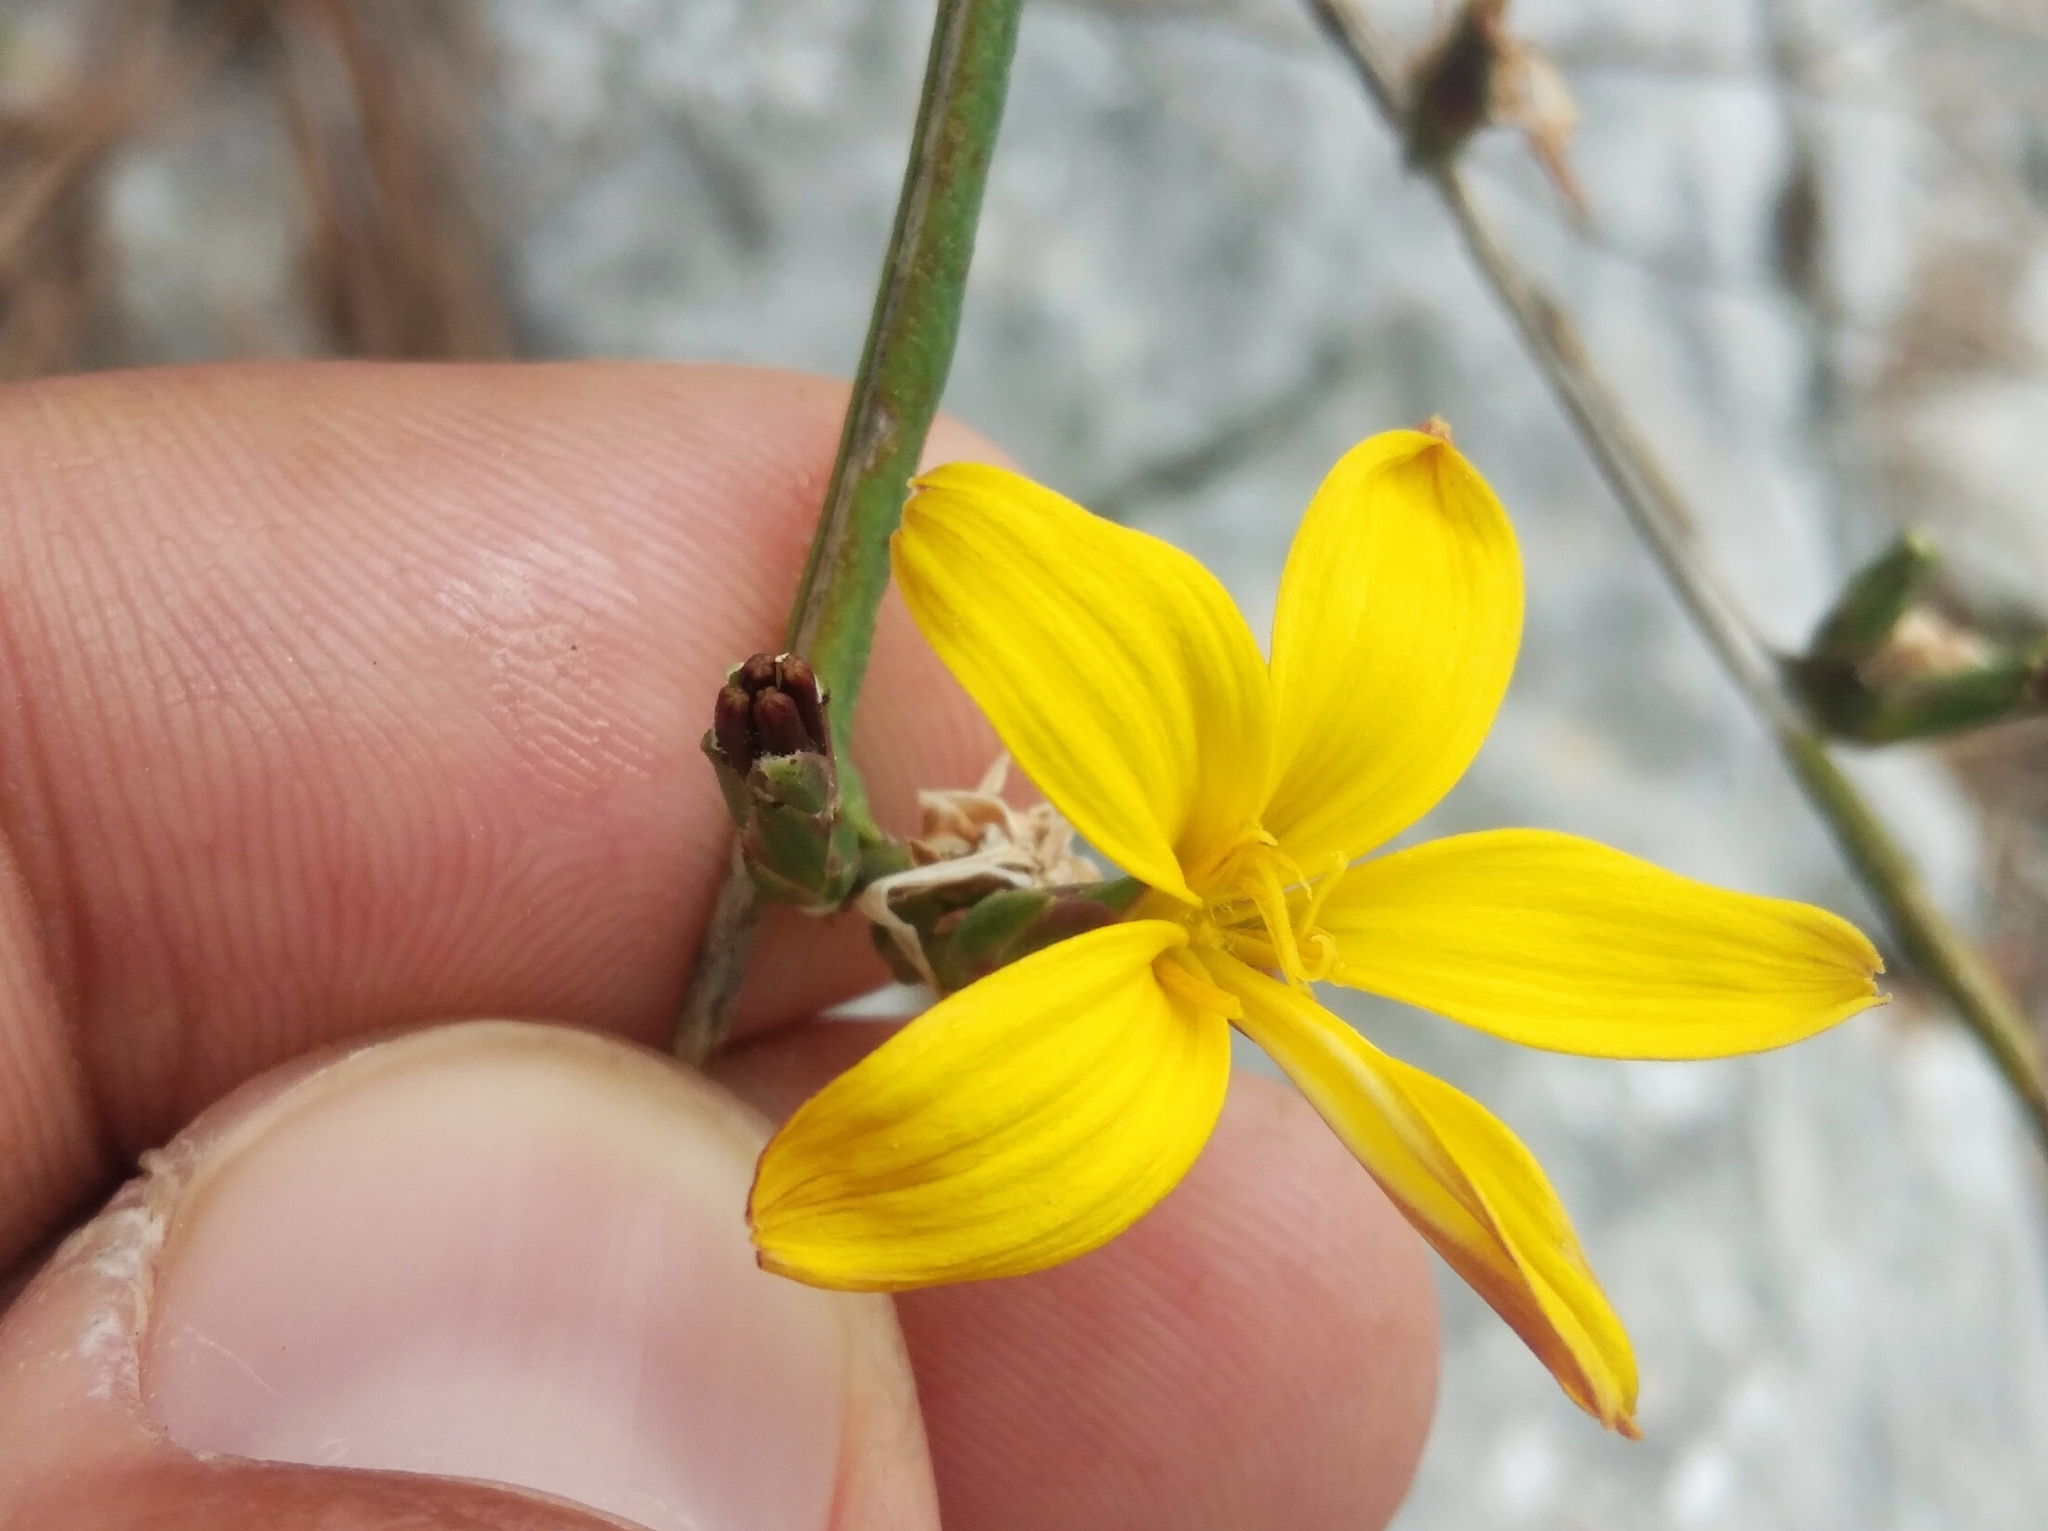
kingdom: Plantae
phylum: Tracheophyta
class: Magnoliopsida
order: Asterales
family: Asteraceae
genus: Lactuca
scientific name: Lactuca viminea
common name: Pliant lettuce
